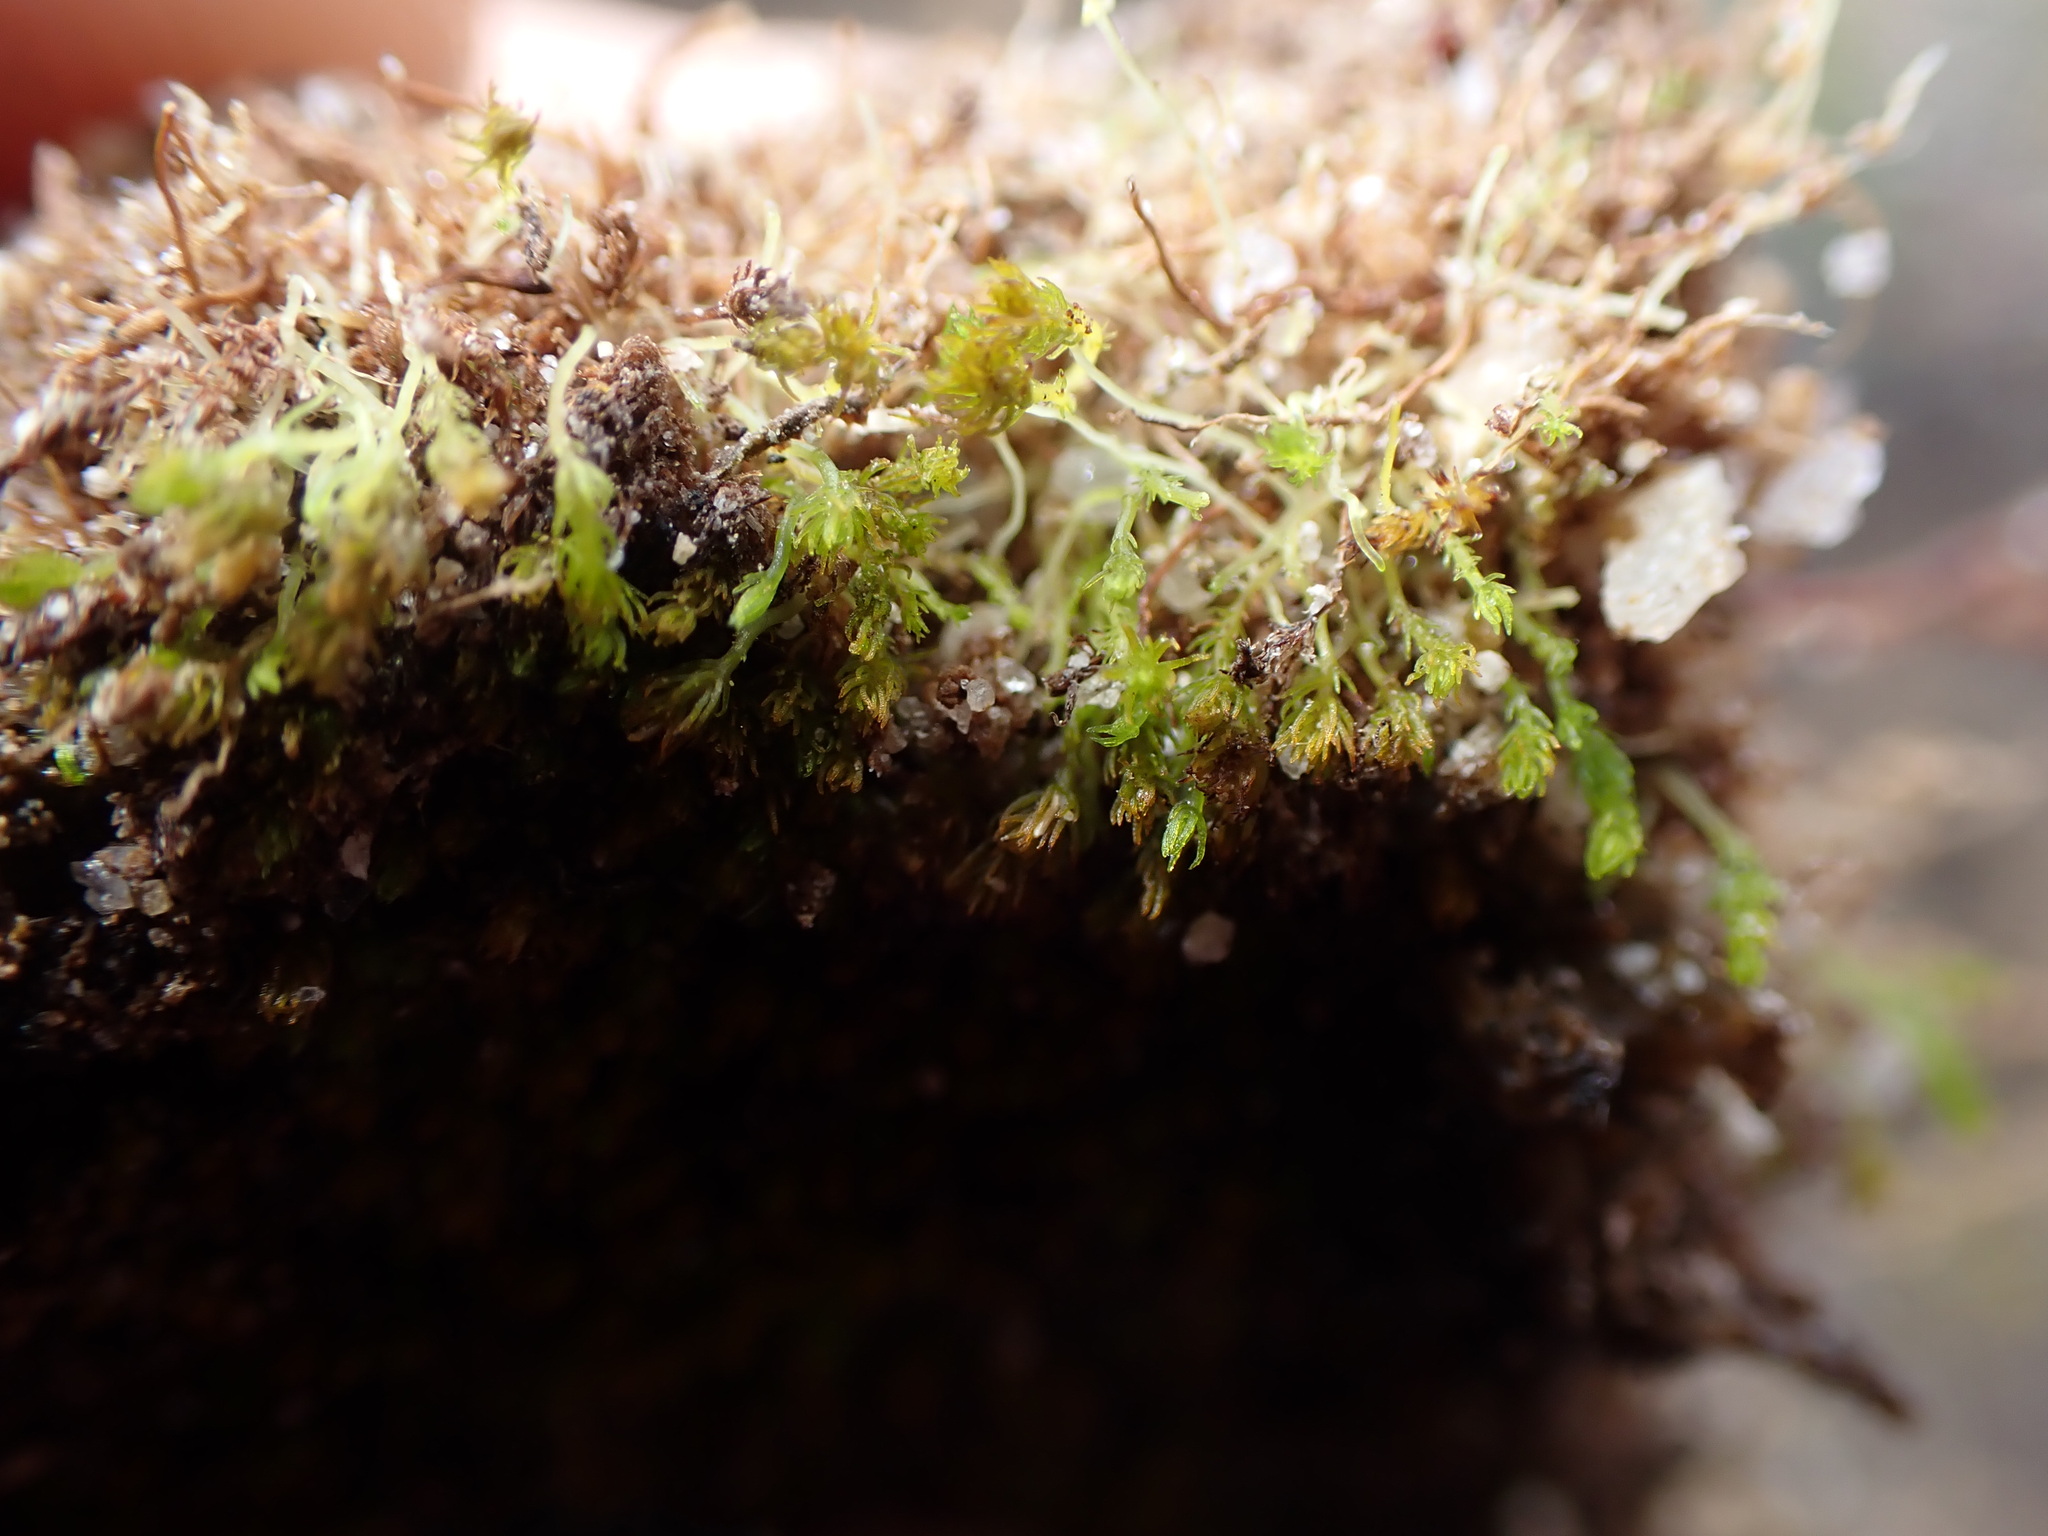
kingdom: Plantae
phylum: Bryophyta
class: Takakiopsida
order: Takakiales
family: Takakiaceae
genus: Takakia
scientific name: Takakia lepidozioides
